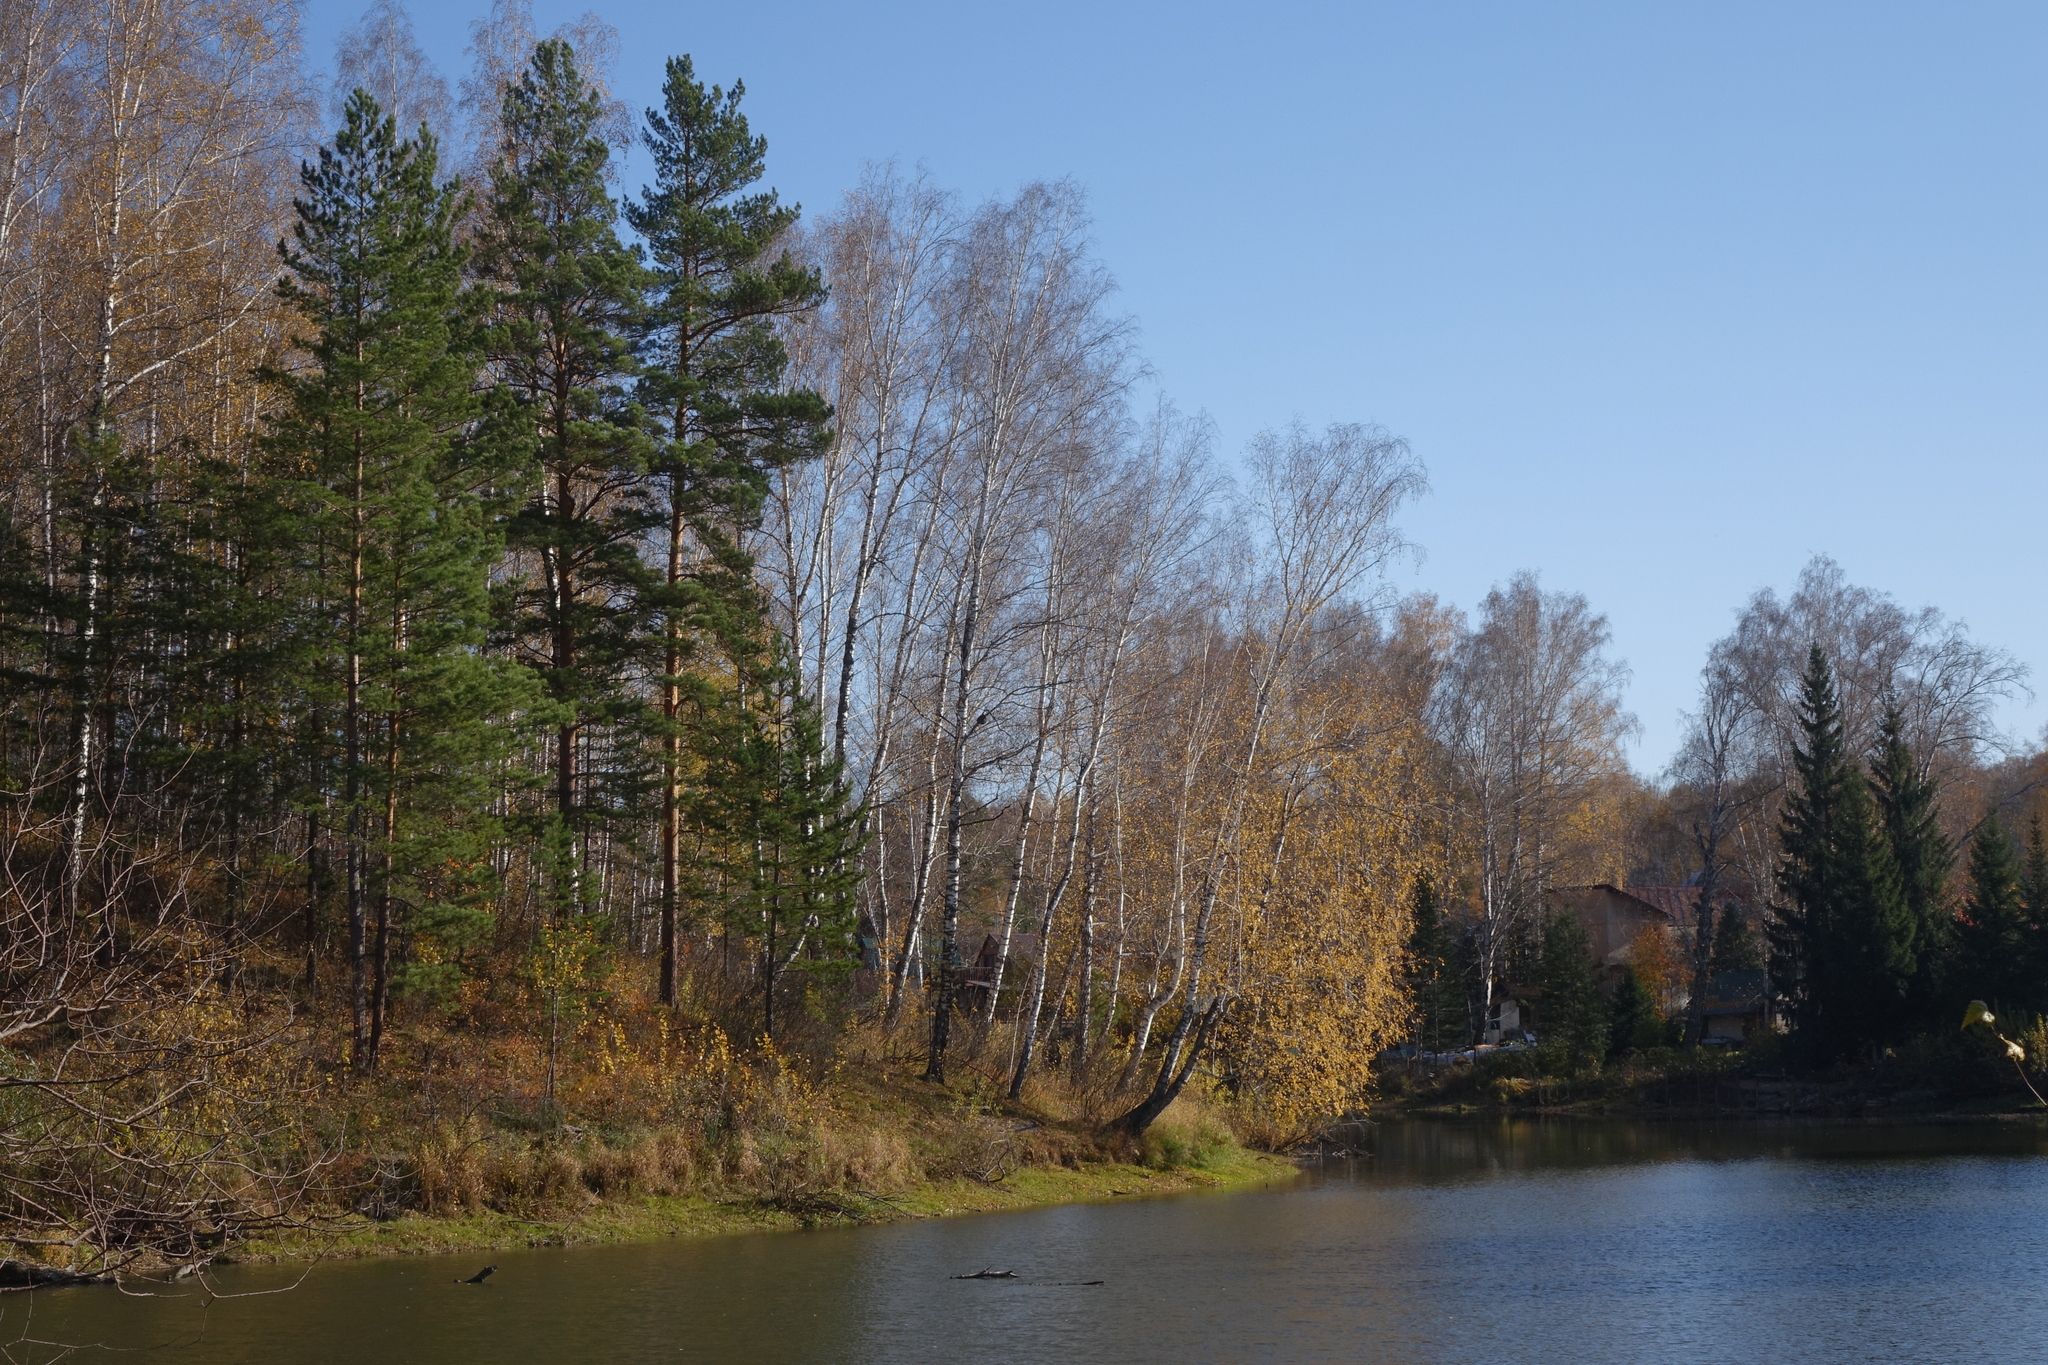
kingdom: Plantae
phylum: Tracheophyta
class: Magnoliopsida
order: Fagales
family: Betulaceae
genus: Betula
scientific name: Betula pendula
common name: Silver birch
